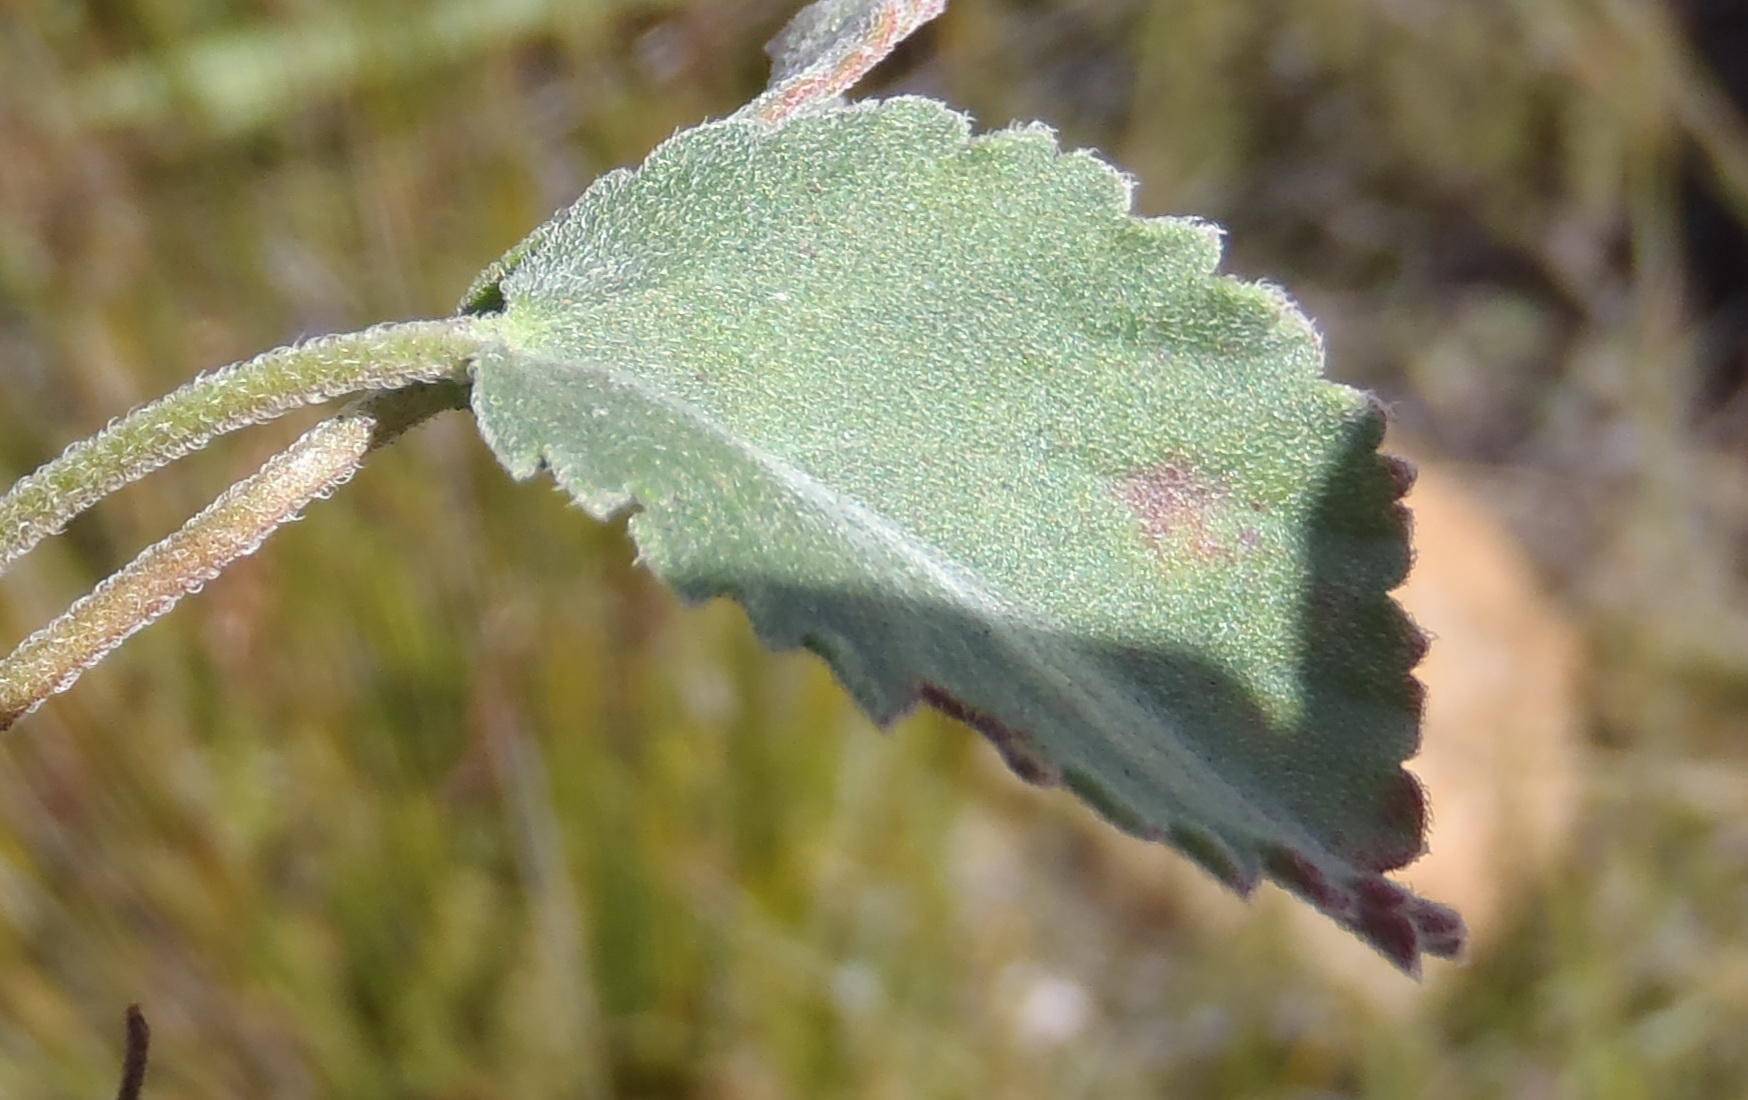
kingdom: Plantae
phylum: Tracheophyta
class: Magnoliopsida
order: Geraniales
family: Geraniaceae
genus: Pelargonium
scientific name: Pelargonium ovale
